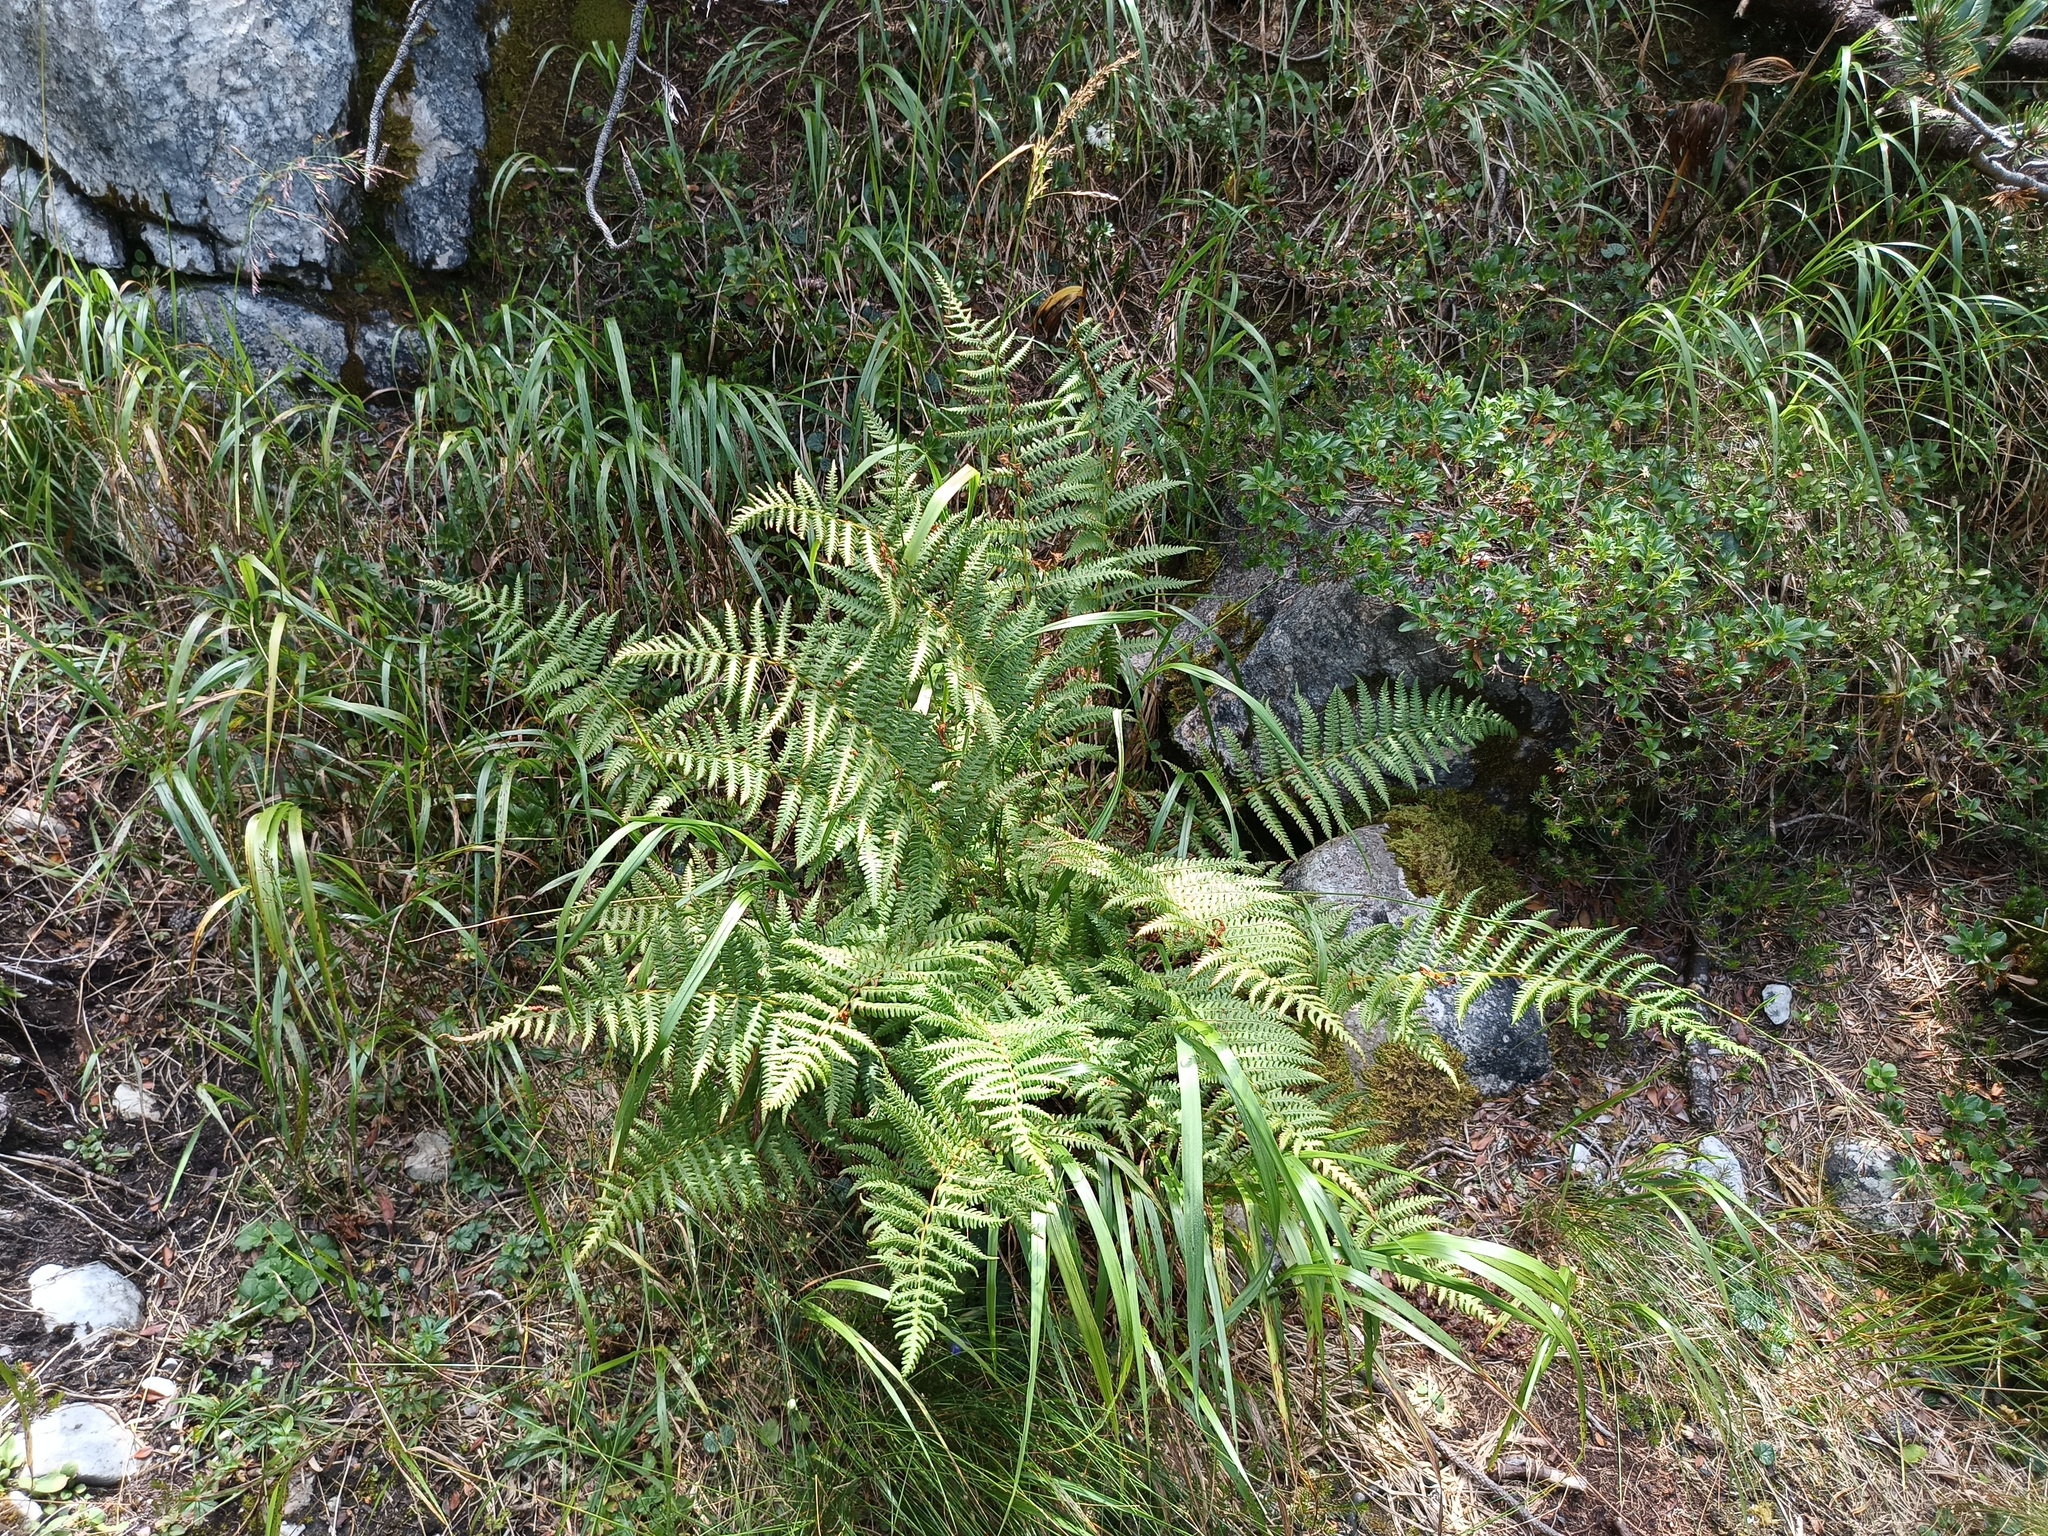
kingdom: Plantae
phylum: Tracheophyta
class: Polypodiopsida
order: Polypodiales
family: Thelypteridaceae
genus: Oreopteris
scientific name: Oreopteris limbosperma
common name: Lemon-scented fern
